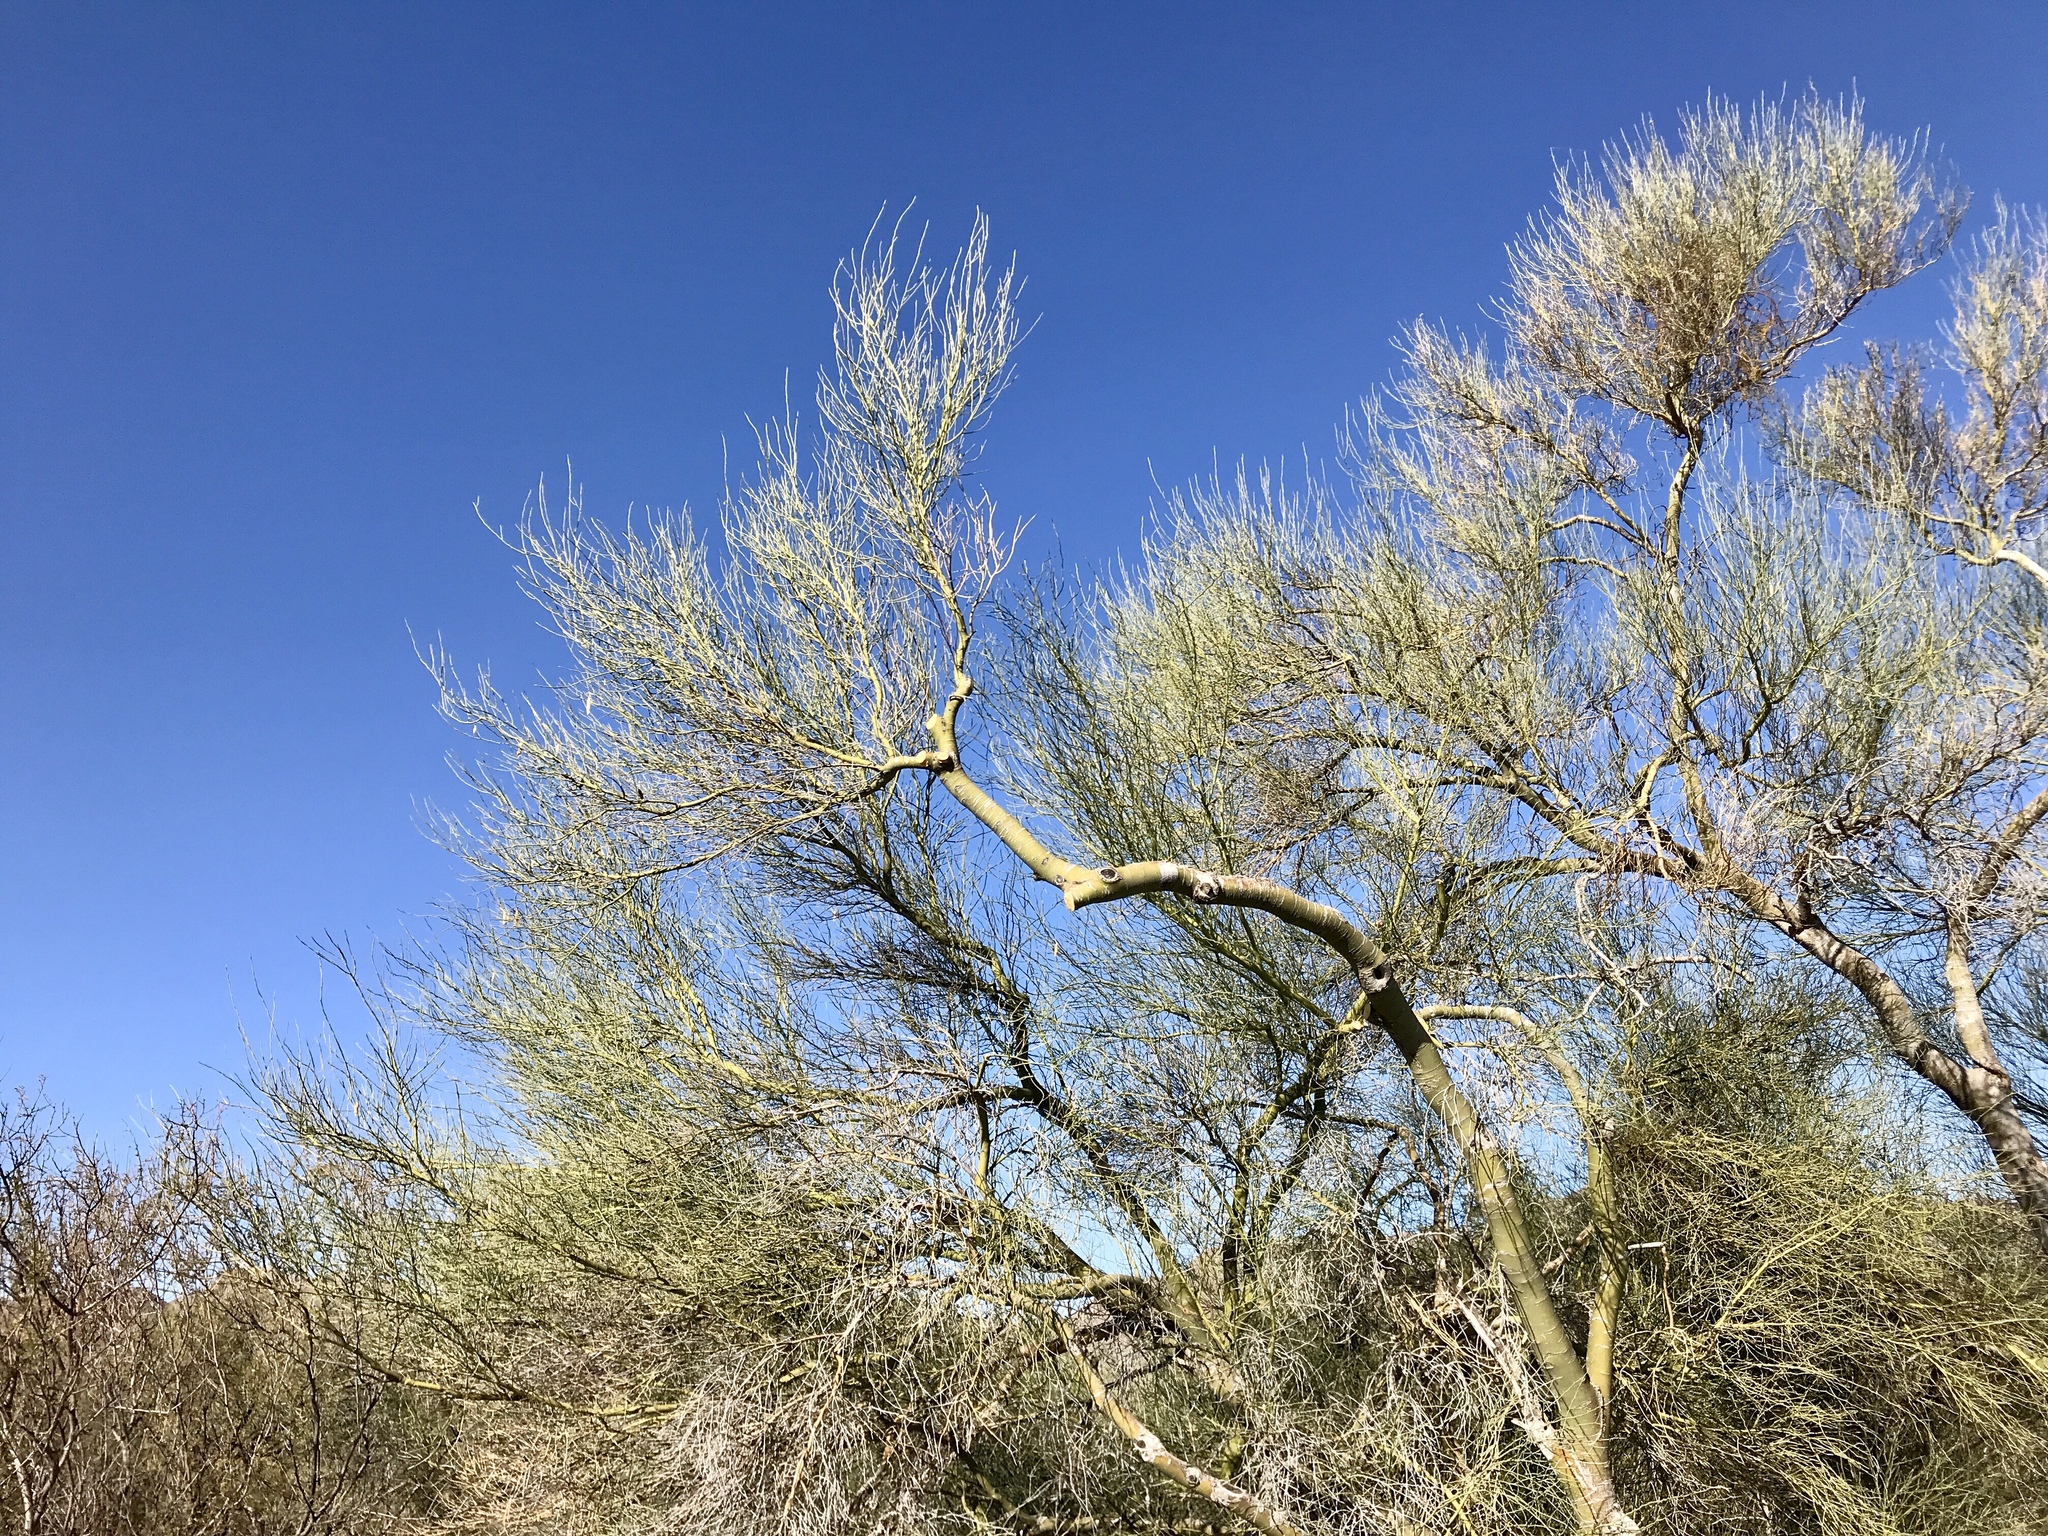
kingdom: Plantae
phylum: Tracheophyta
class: Magnoliopsida
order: Fabales
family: Fabaceae
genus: Parkinsonia
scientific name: Parkinsonia florida
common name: Blue paloverde
